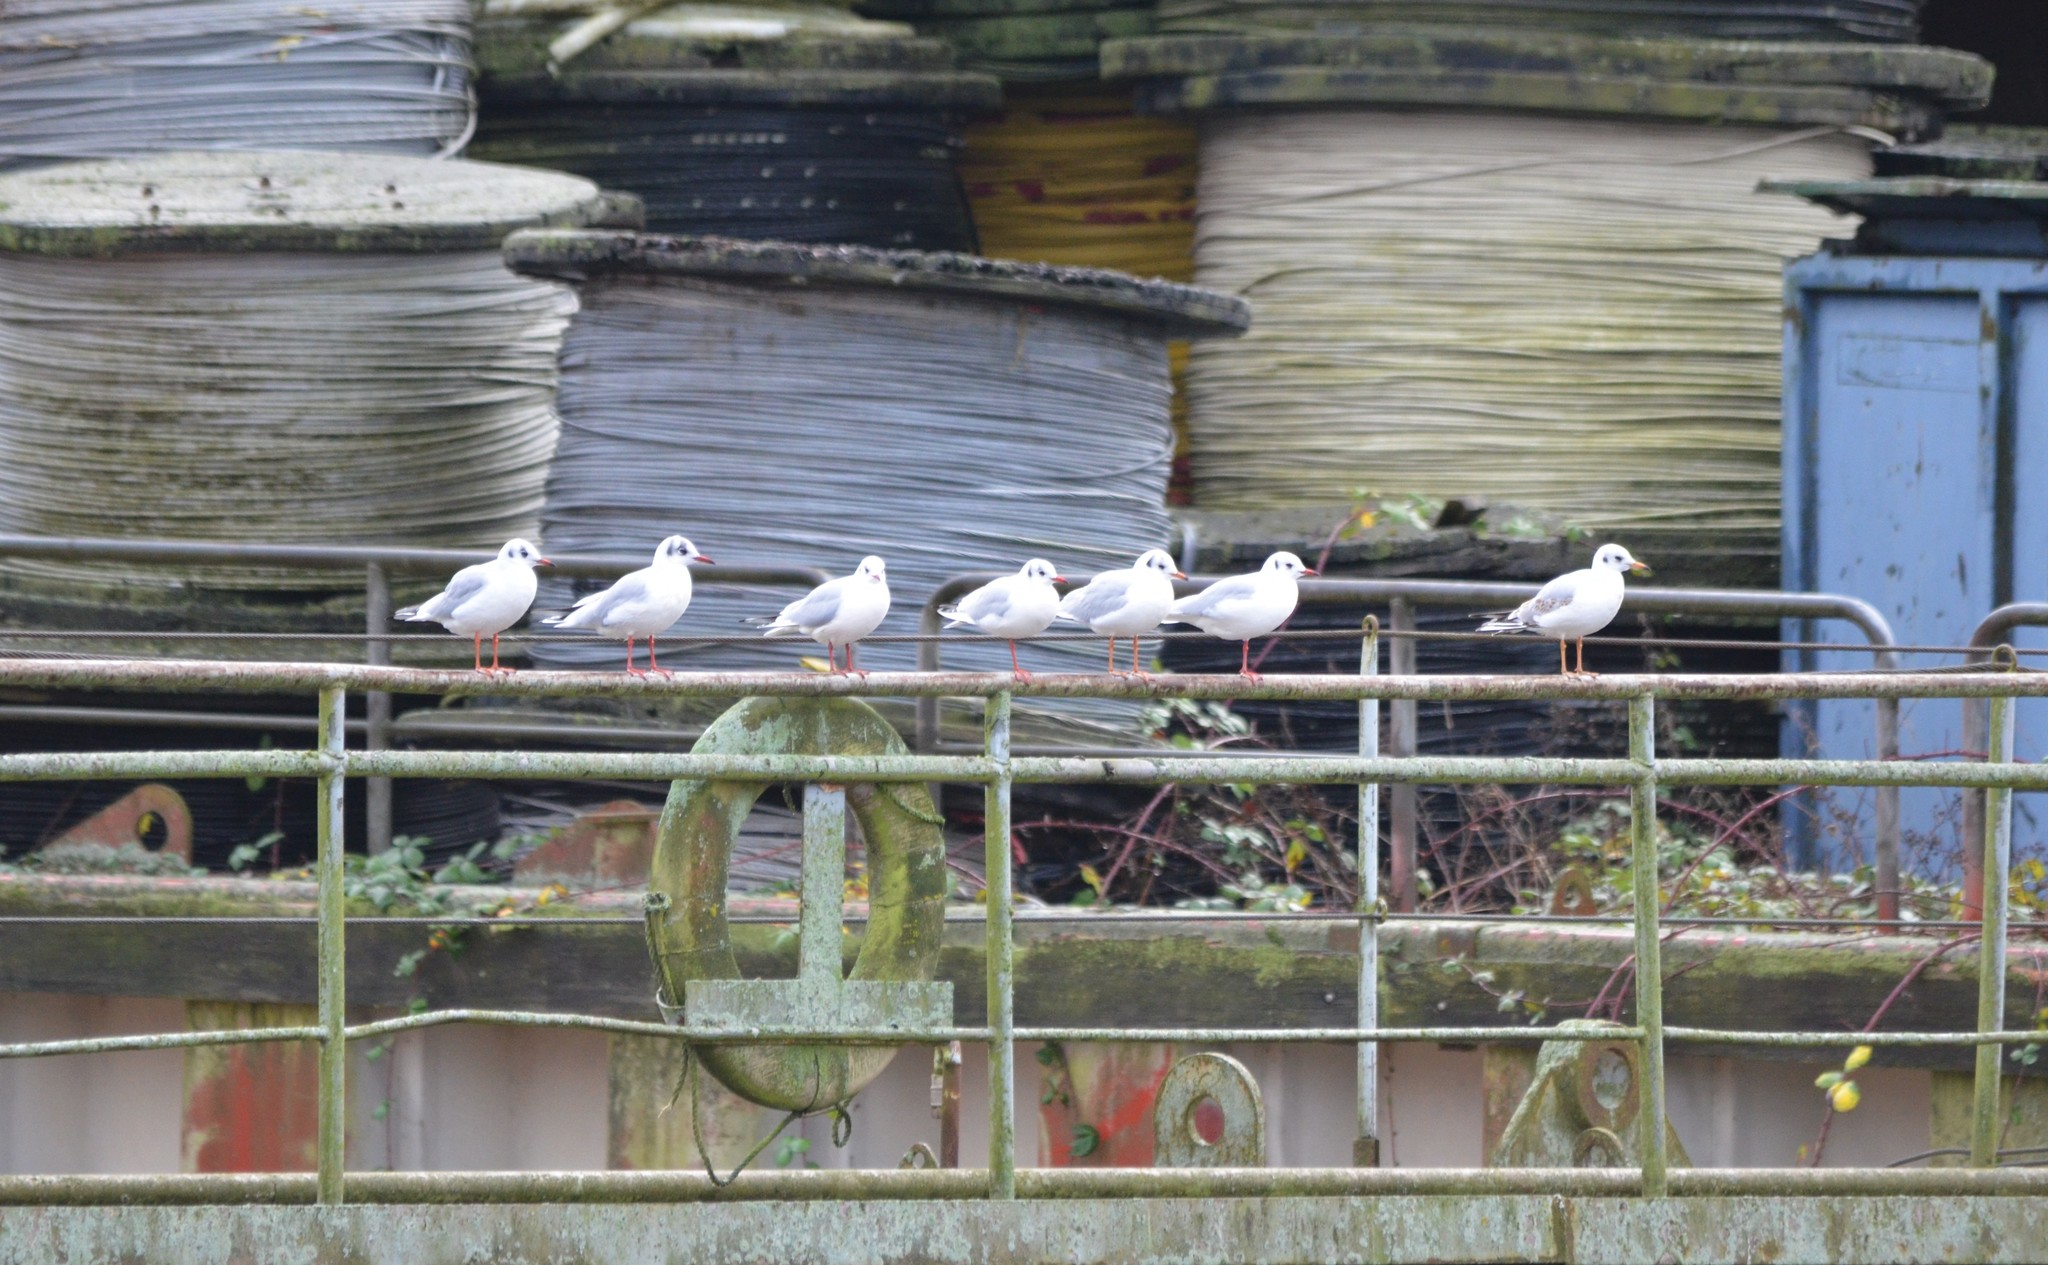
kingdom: Animalia
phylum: Chordata
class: Aves
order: Charadriiformes
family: Laridae
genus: Chroicocephalus
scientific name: Chroicocephalus ridibundus
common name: Black-headed gull
